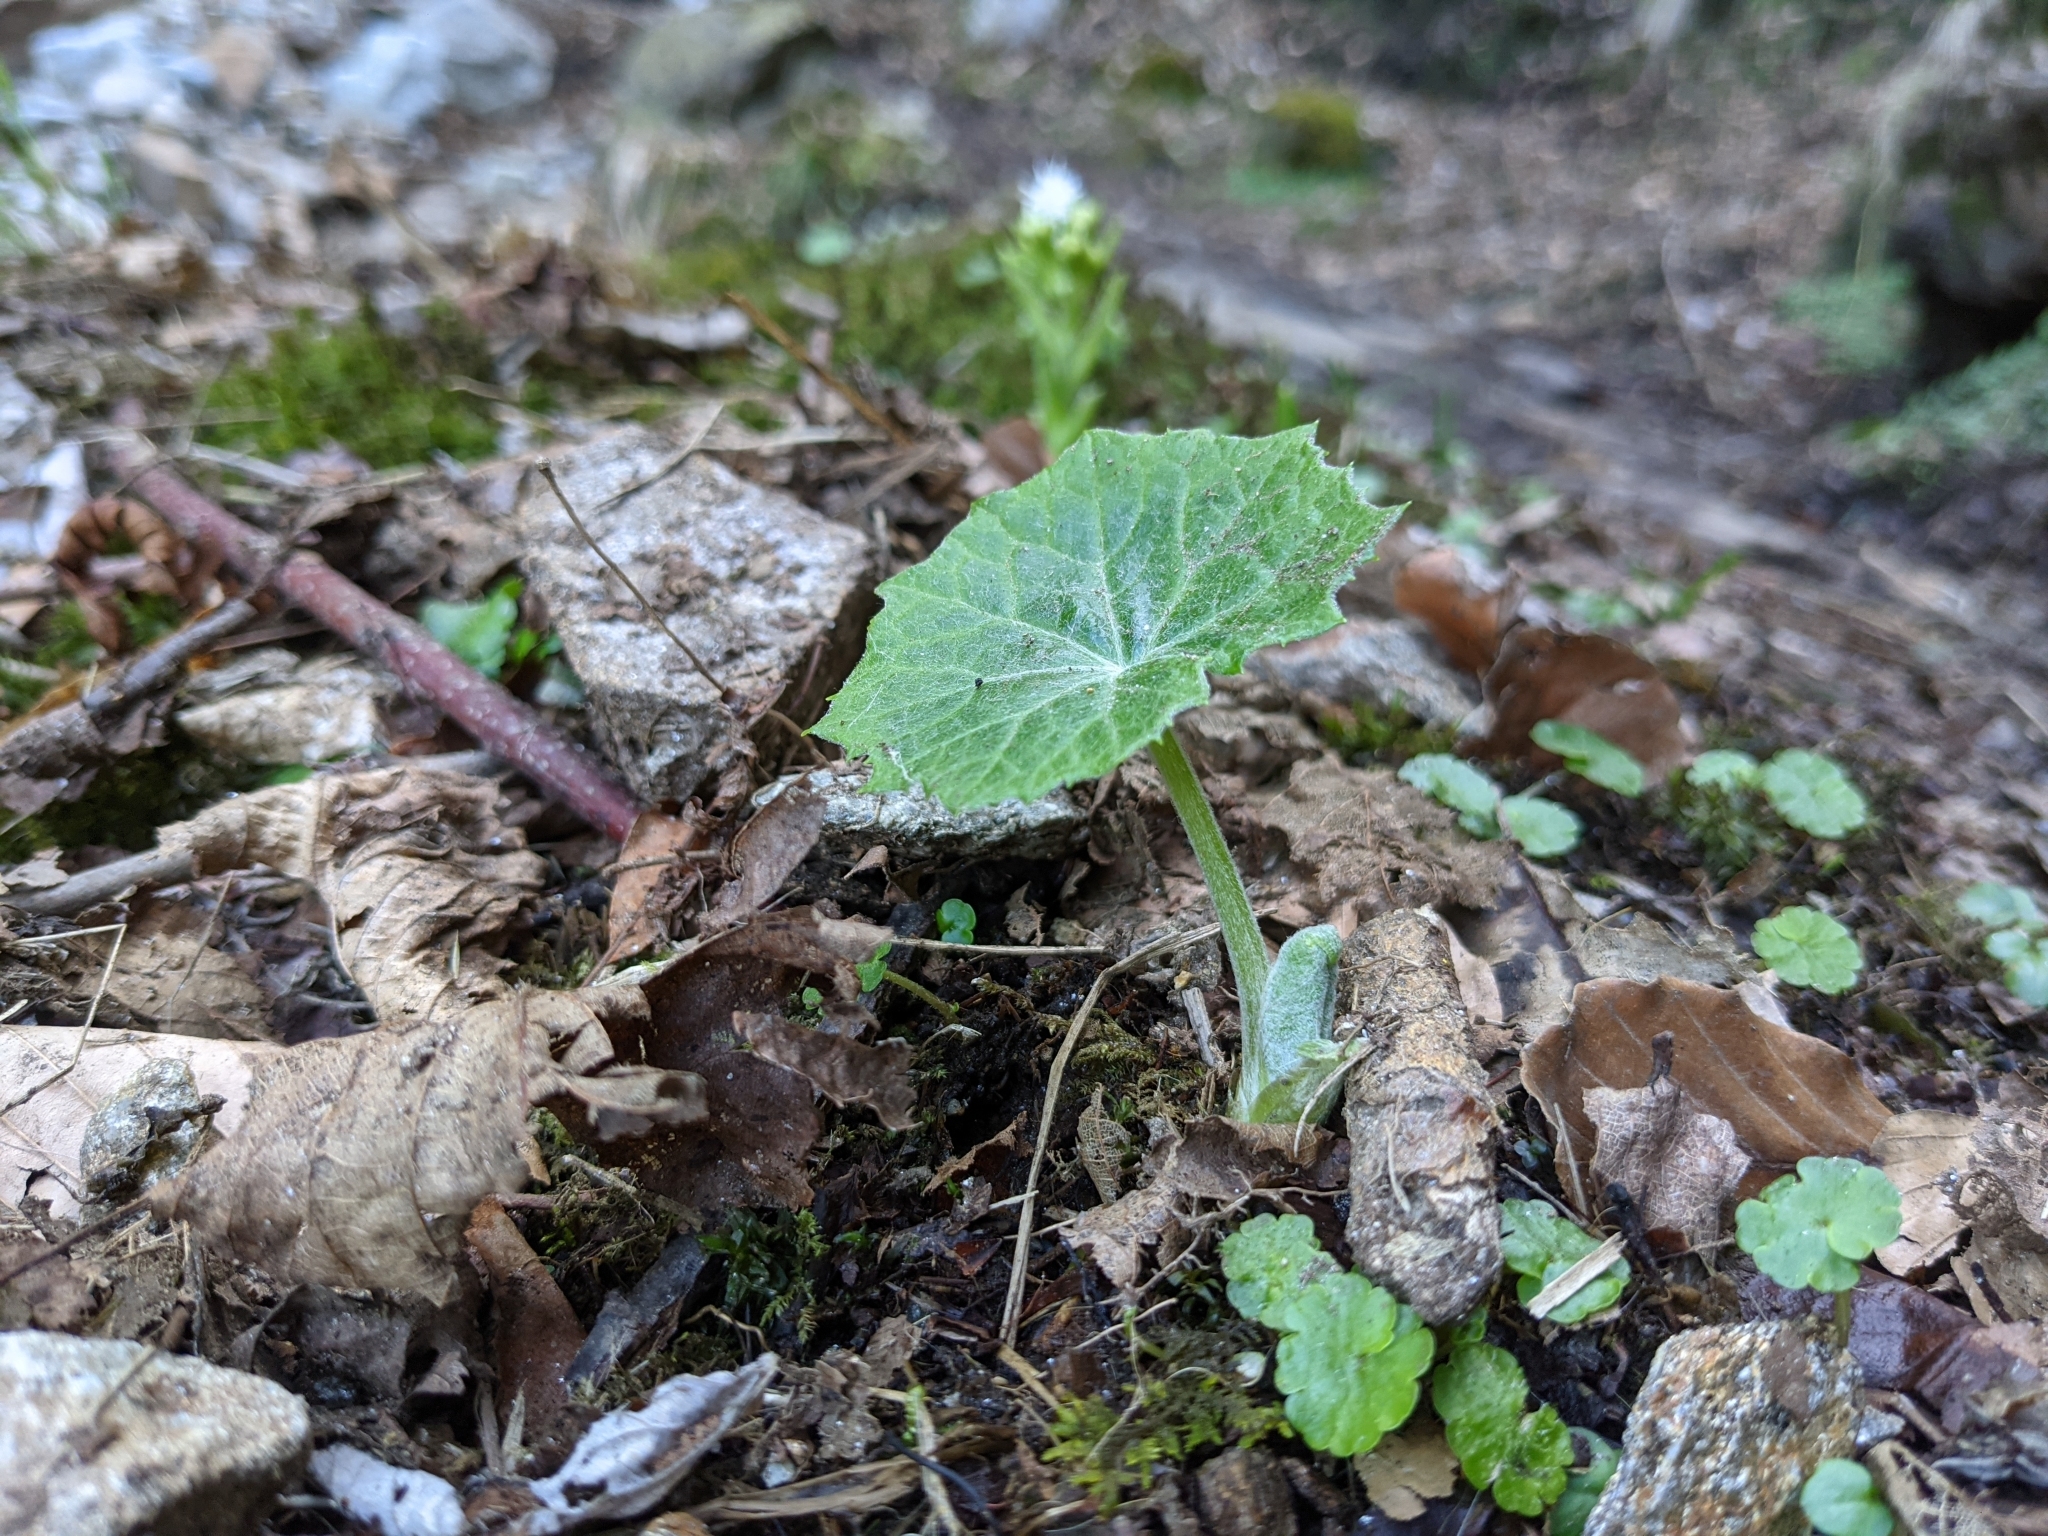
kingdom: Plantae
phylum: Tracheophyta
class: Magnoliopsida
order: Asterales
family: Asteraceae
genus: Tussilago
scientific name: Tussilago farfara
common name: Coltsfoot
